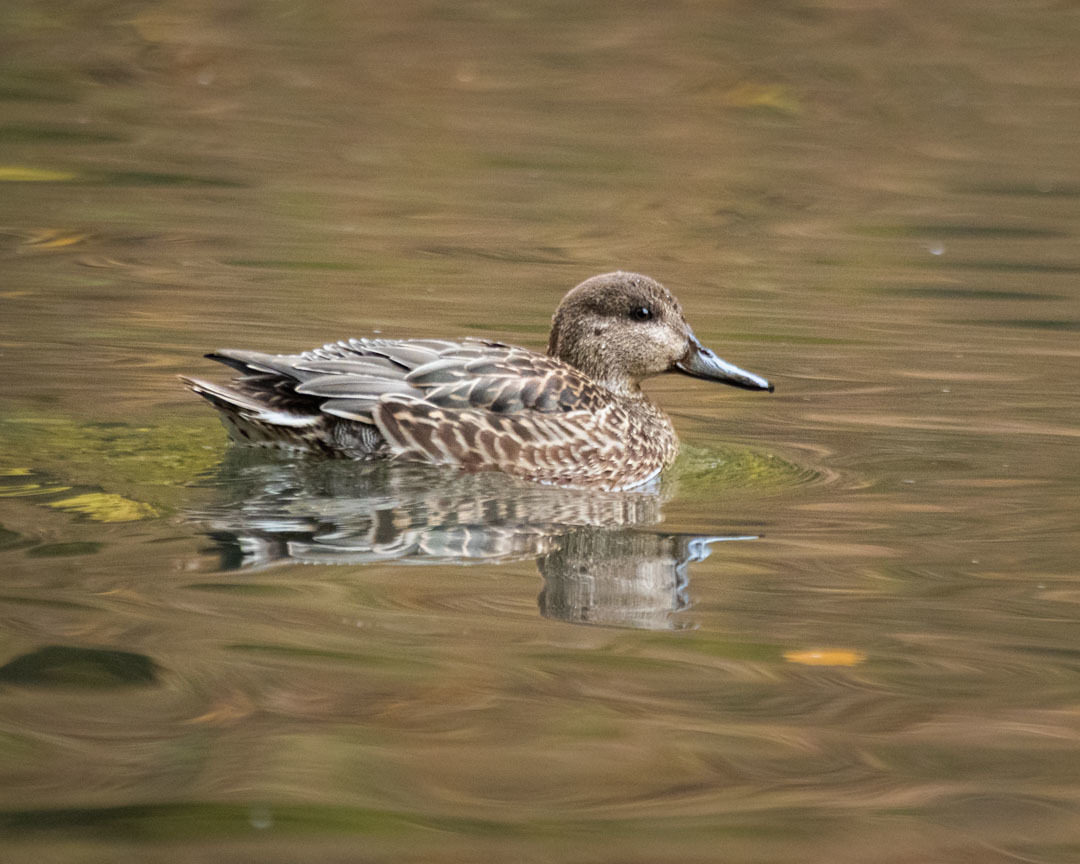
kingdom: Animalia
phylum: Chordata
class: Aves
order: Anseriformes
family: Anatidae
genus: Anas
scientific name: Anas crecca
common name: Eurasian teal
